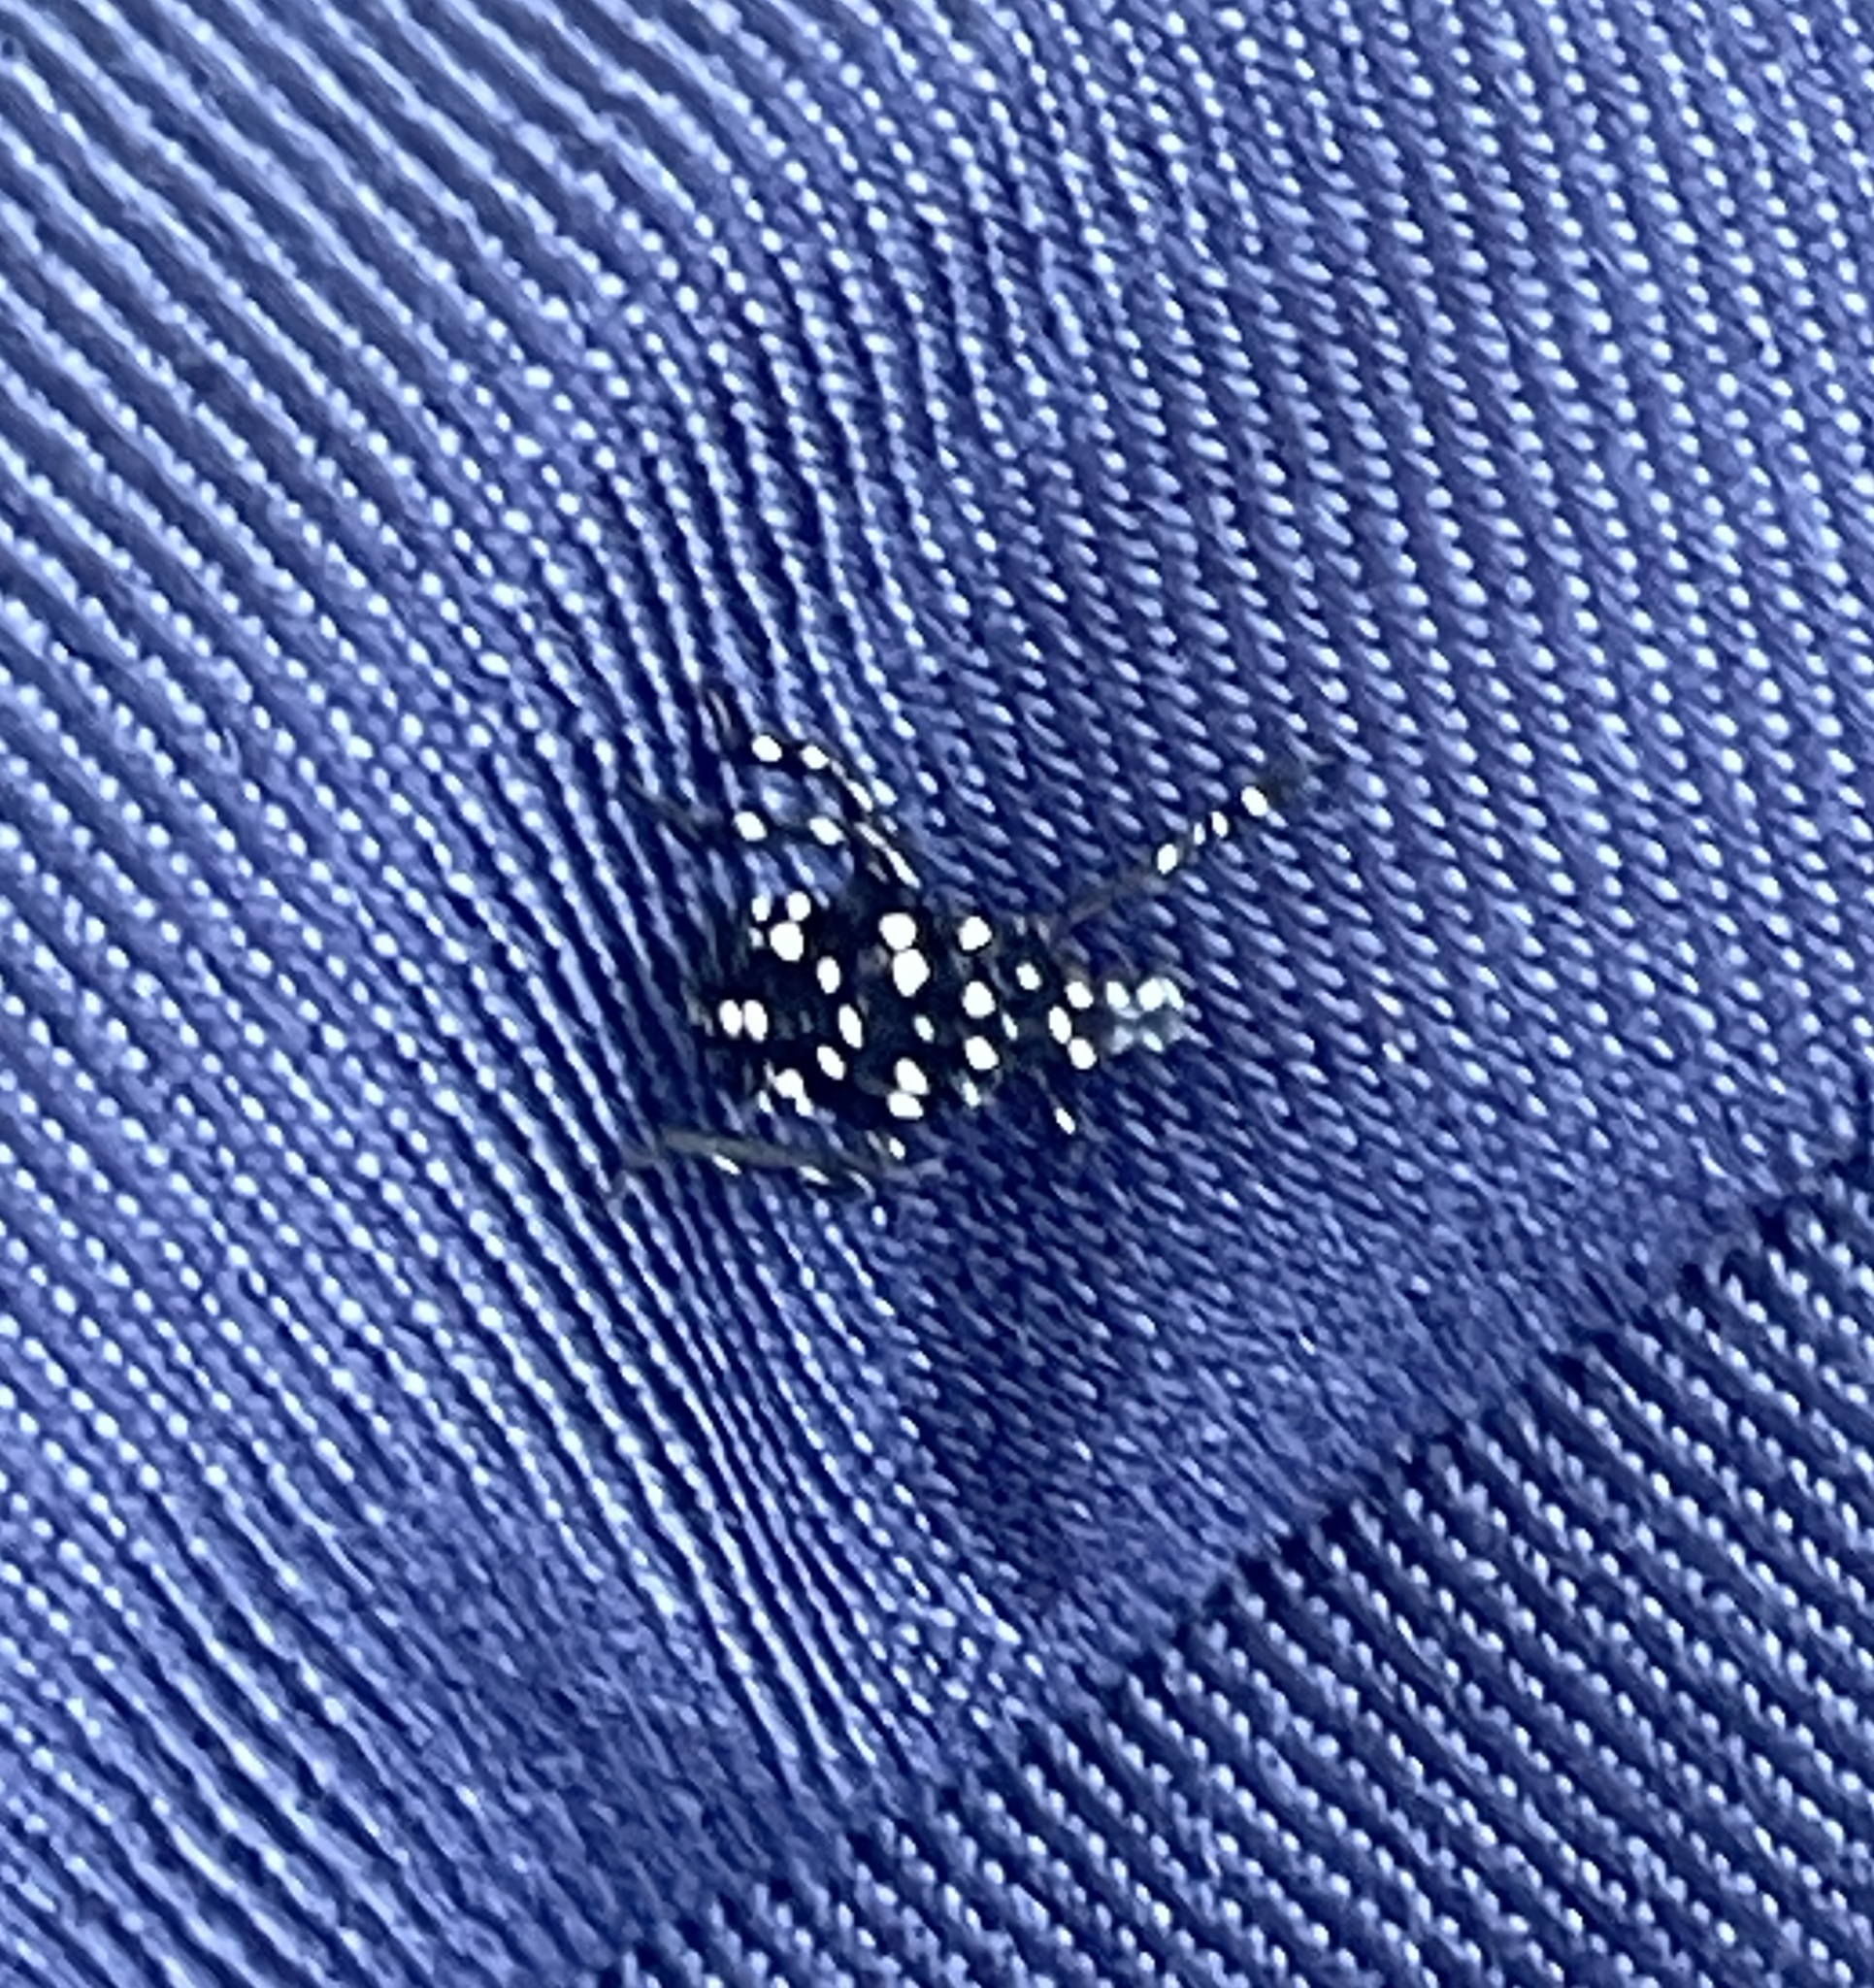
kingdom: Animalia
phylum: Arthropoda
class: Insecta
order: Hemiptera
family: Fulgoridae
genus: Lycorma
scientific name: Lycorma delicatula
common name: Spotted lanternfly
